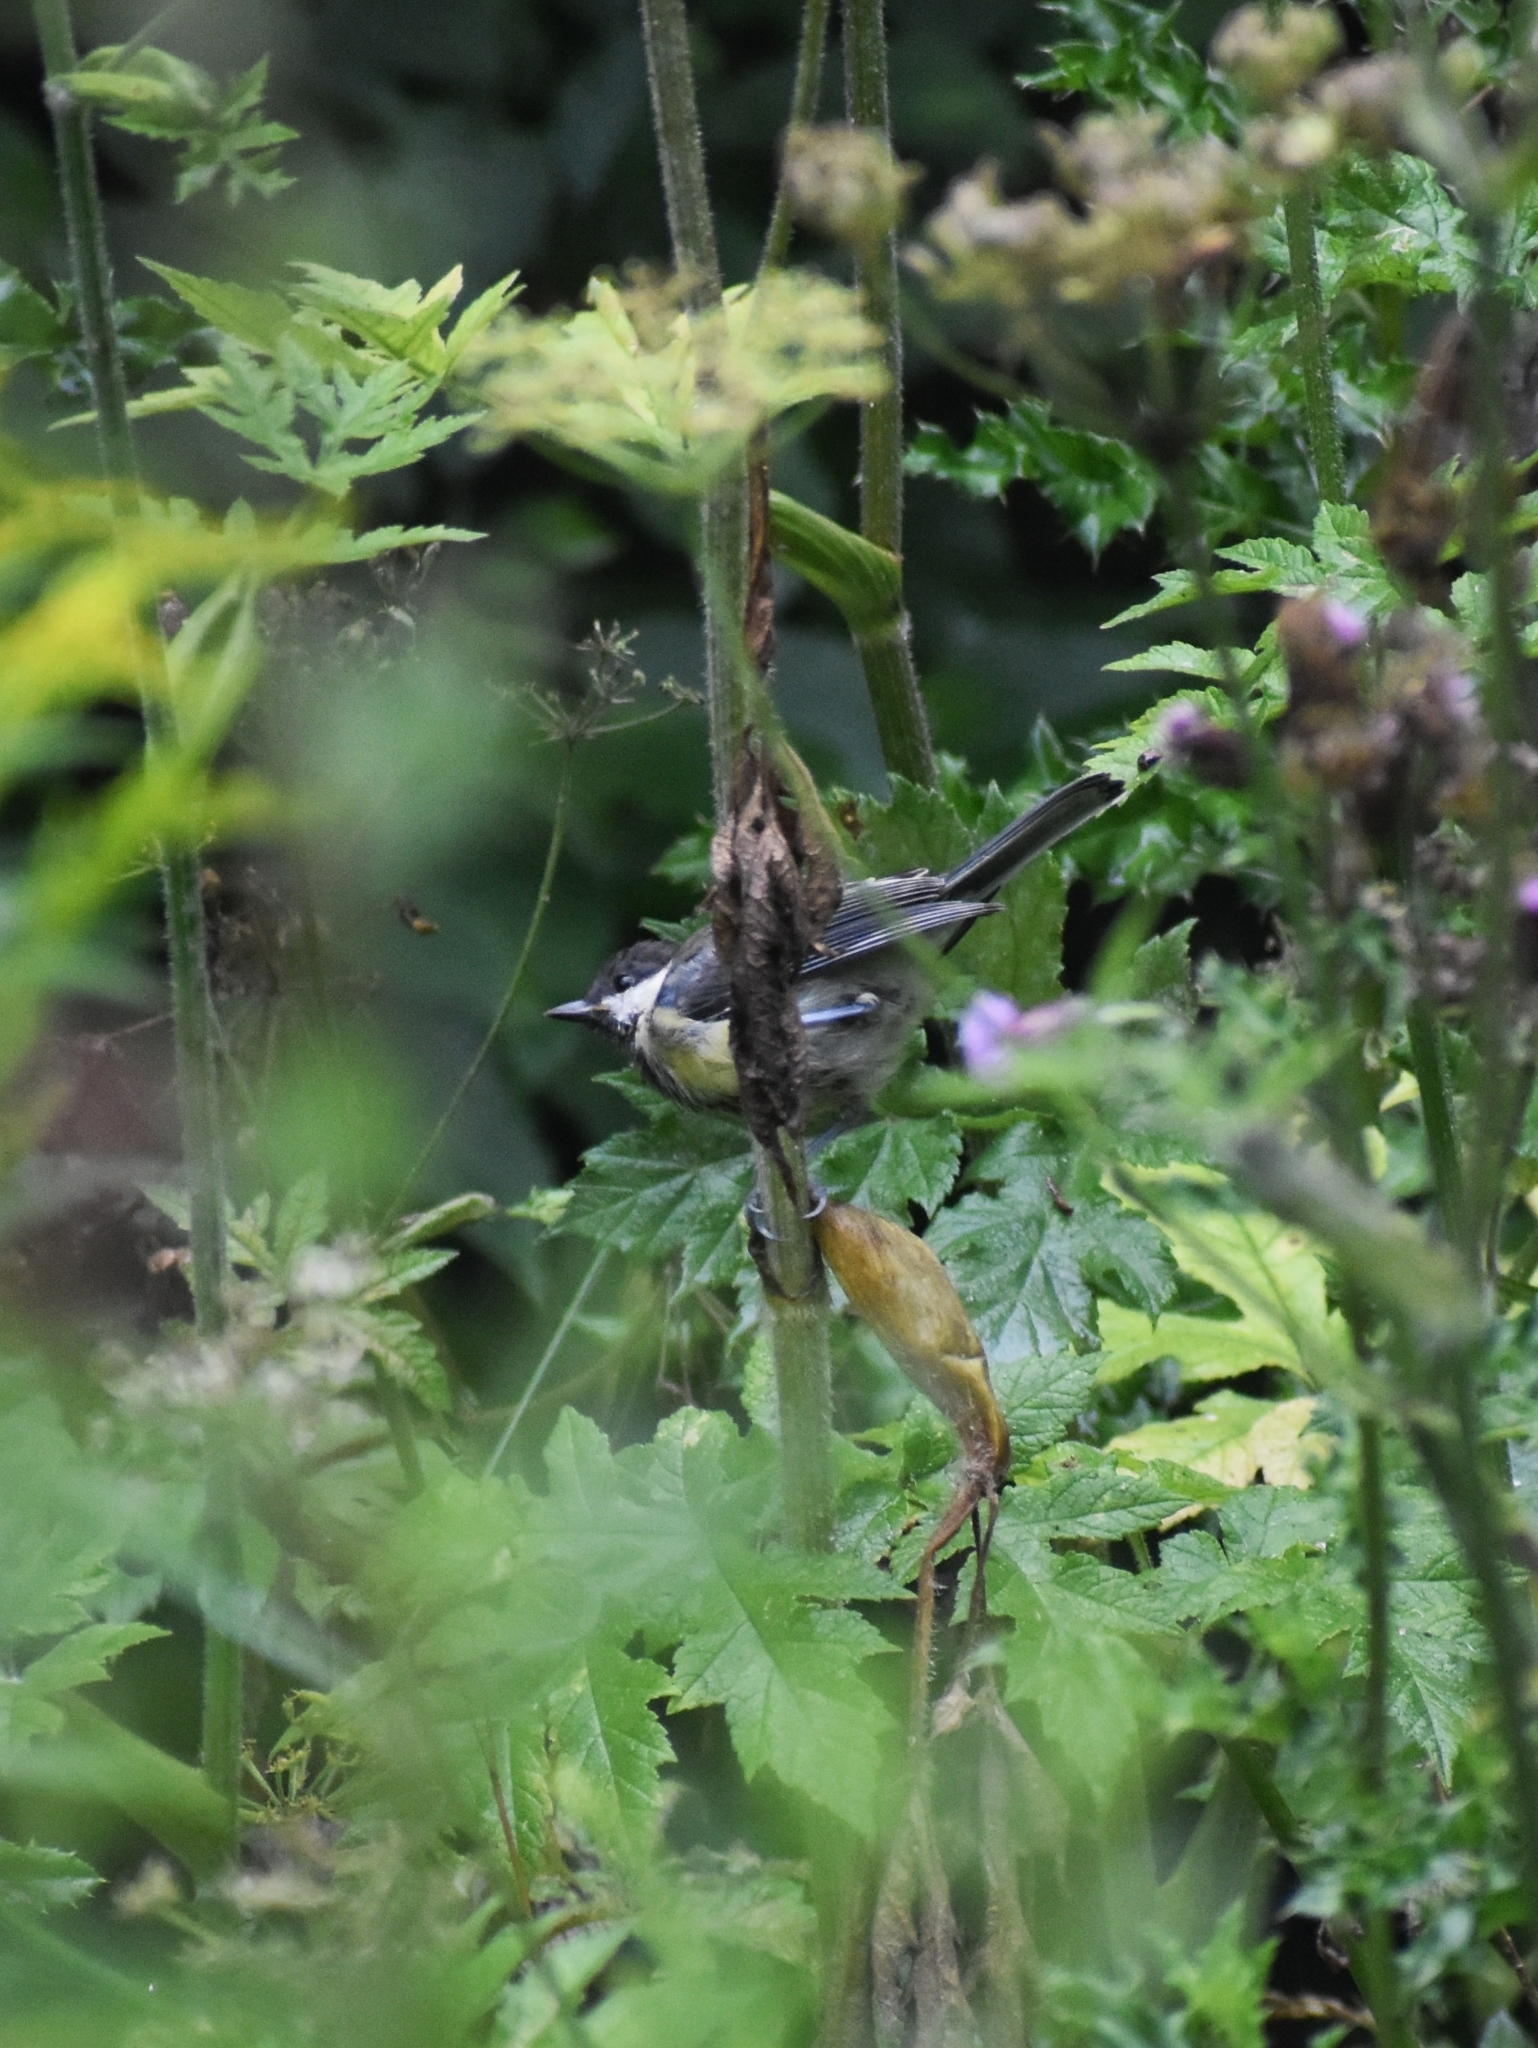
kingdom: Animalia
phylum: Chordata
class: Aves
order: Passeriformes
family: Paridae
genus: Parus
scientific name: Parus major
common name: Great tit
